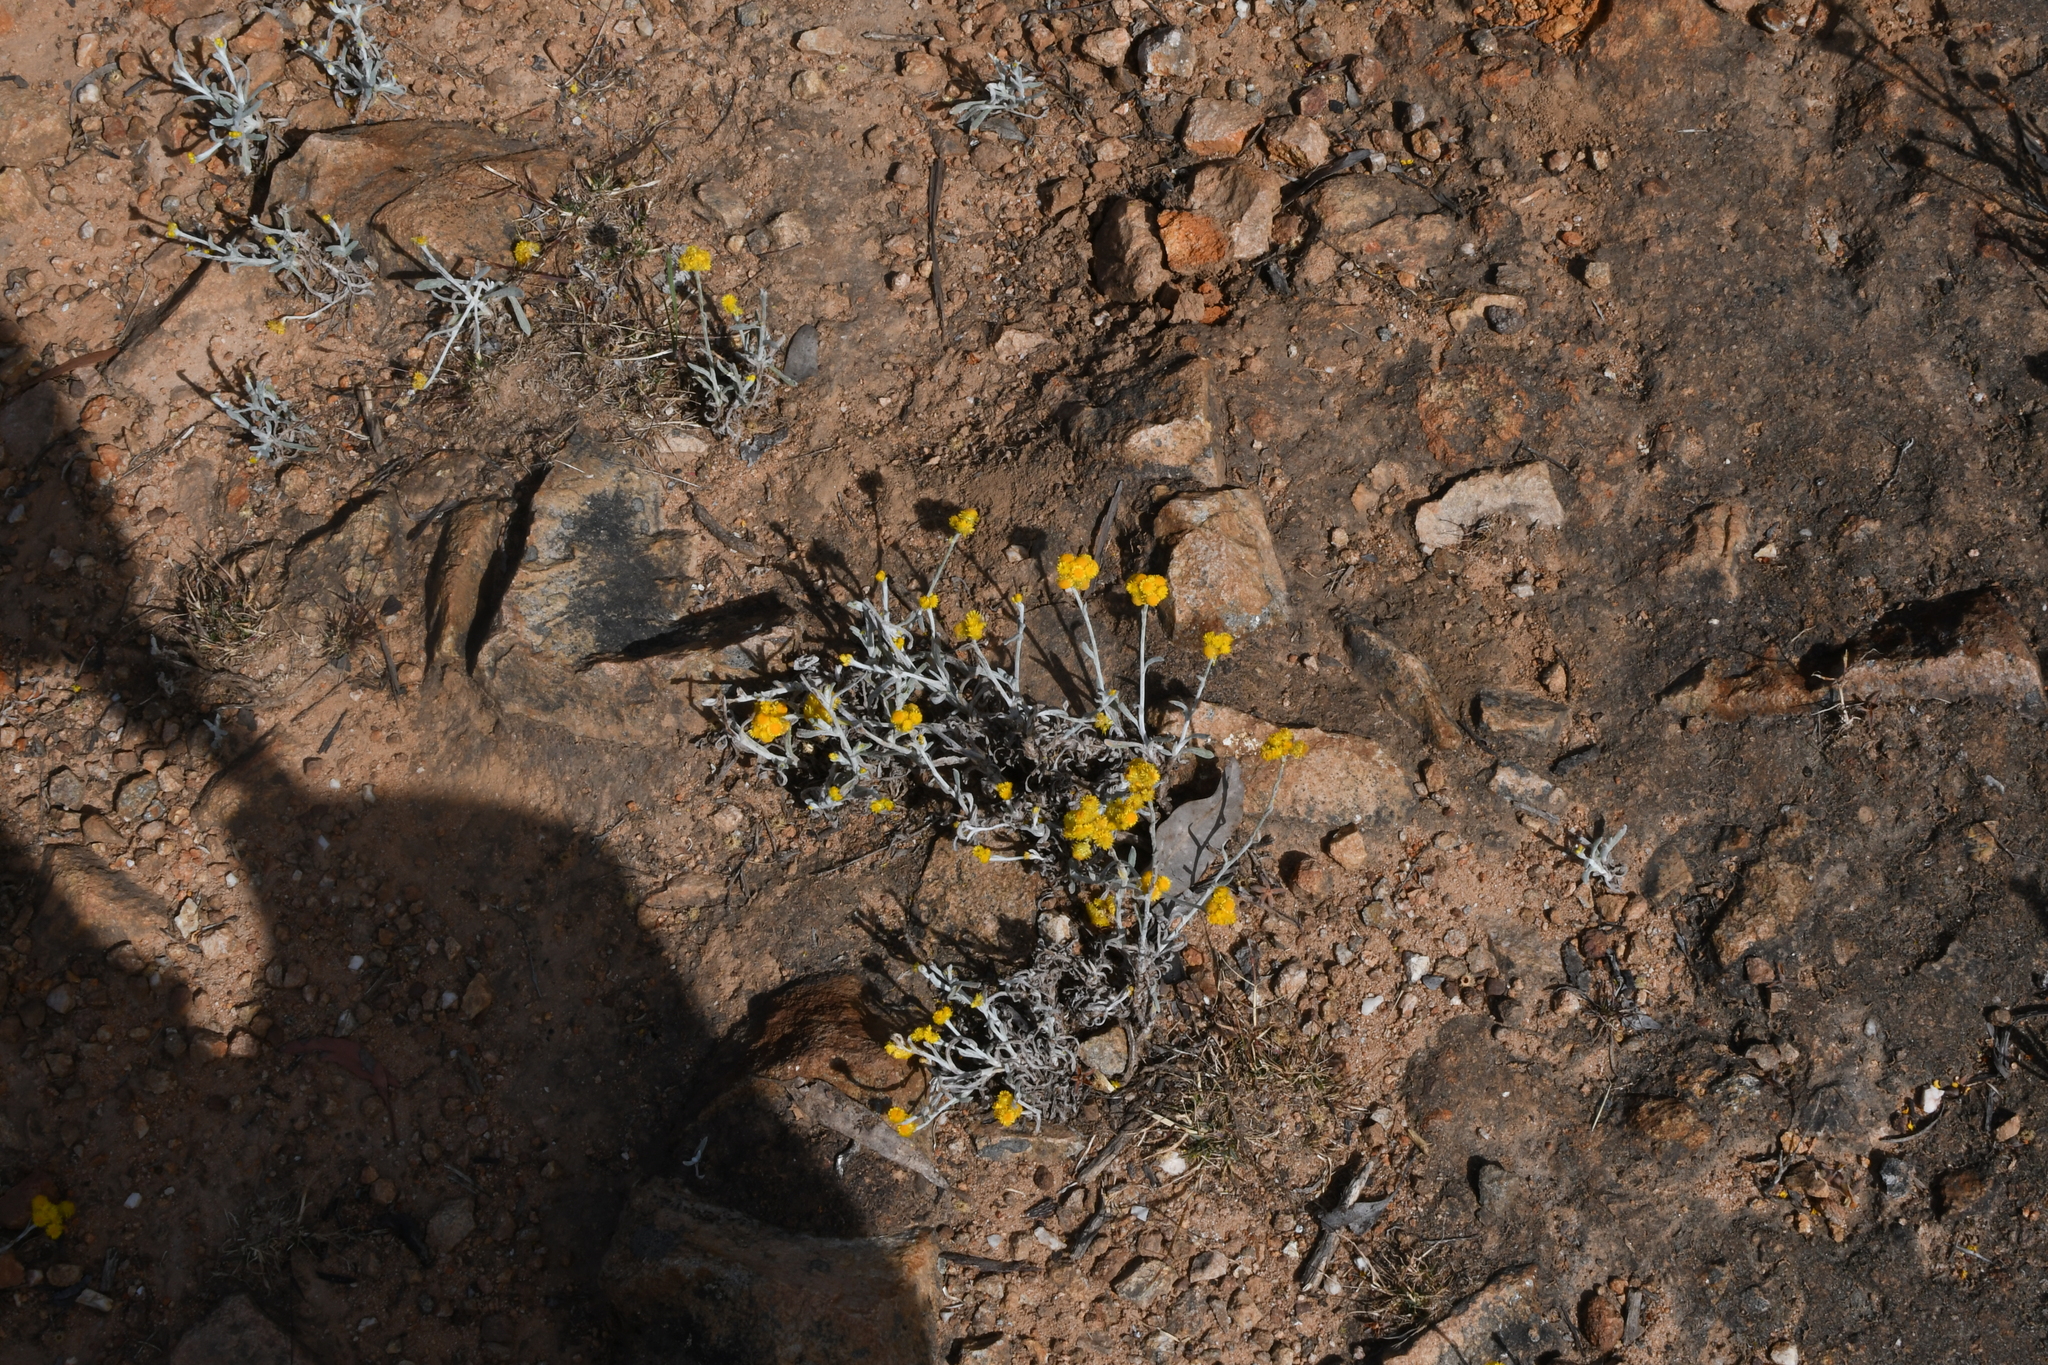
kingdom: Plantae
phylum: Tracheophyta
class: Magnoliopsida
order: Asterales
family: Asteraceae
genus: Chrysocephalum
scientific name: Chrysocephalum apiculatum
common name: Common everlasting
